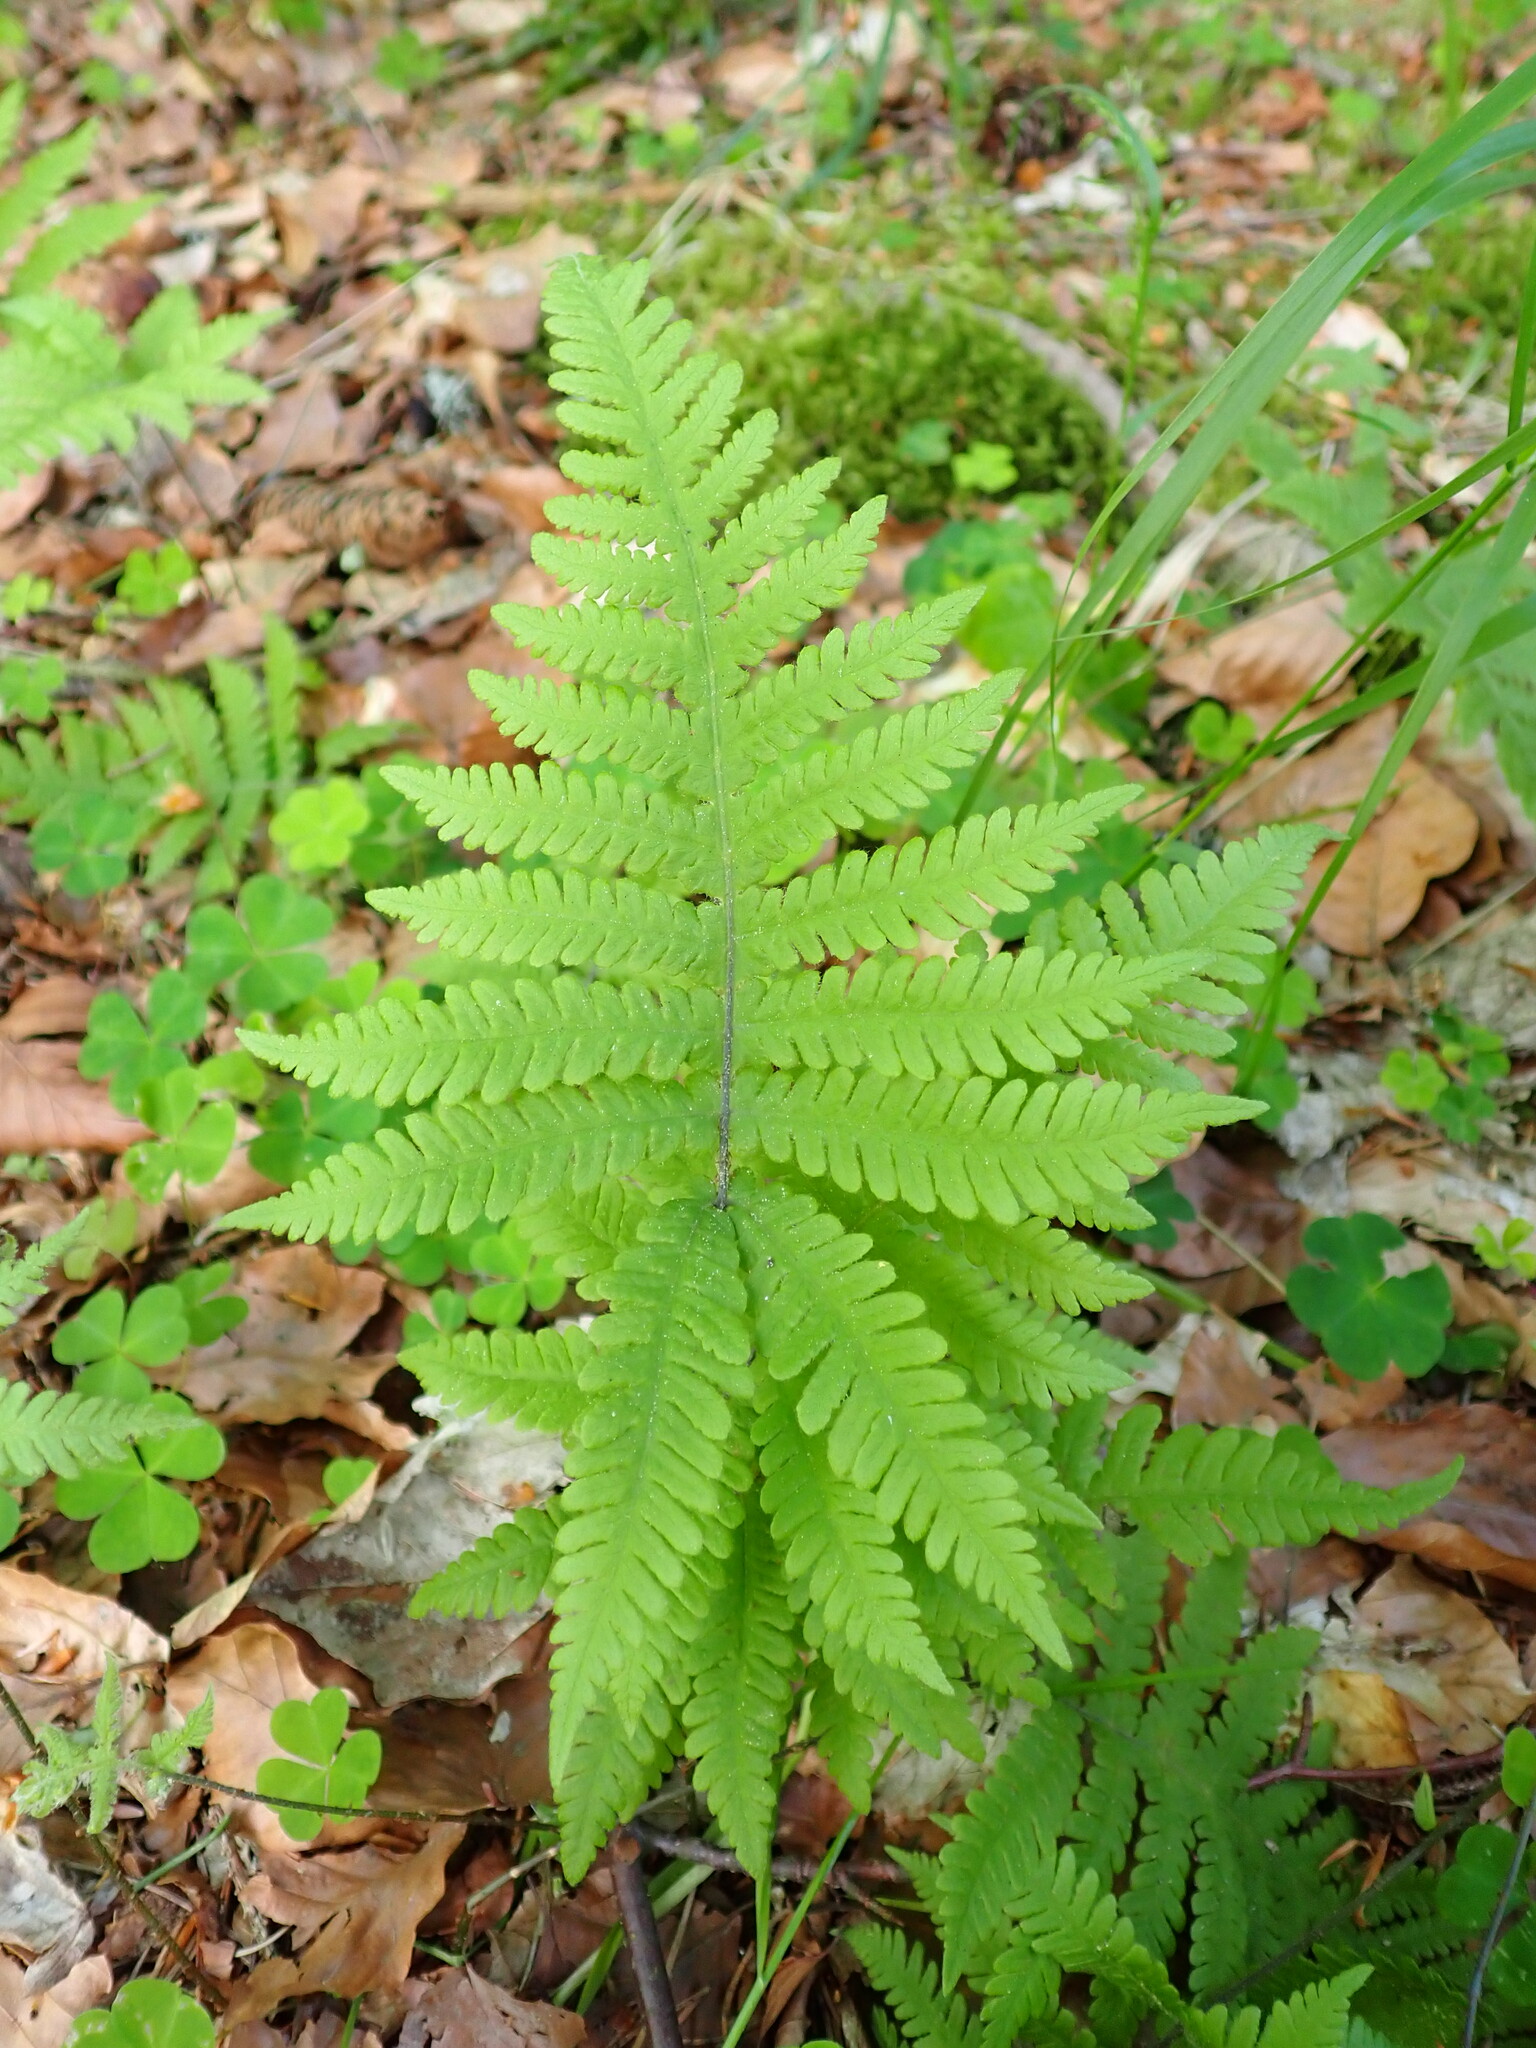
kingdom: Plantae
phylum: Tracheophyta
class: Polypodiopsida
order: Polypodiales
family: Thelypteridaceae
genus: Phegopteris
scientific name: Phegopteris connectilis
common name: Beech fern
